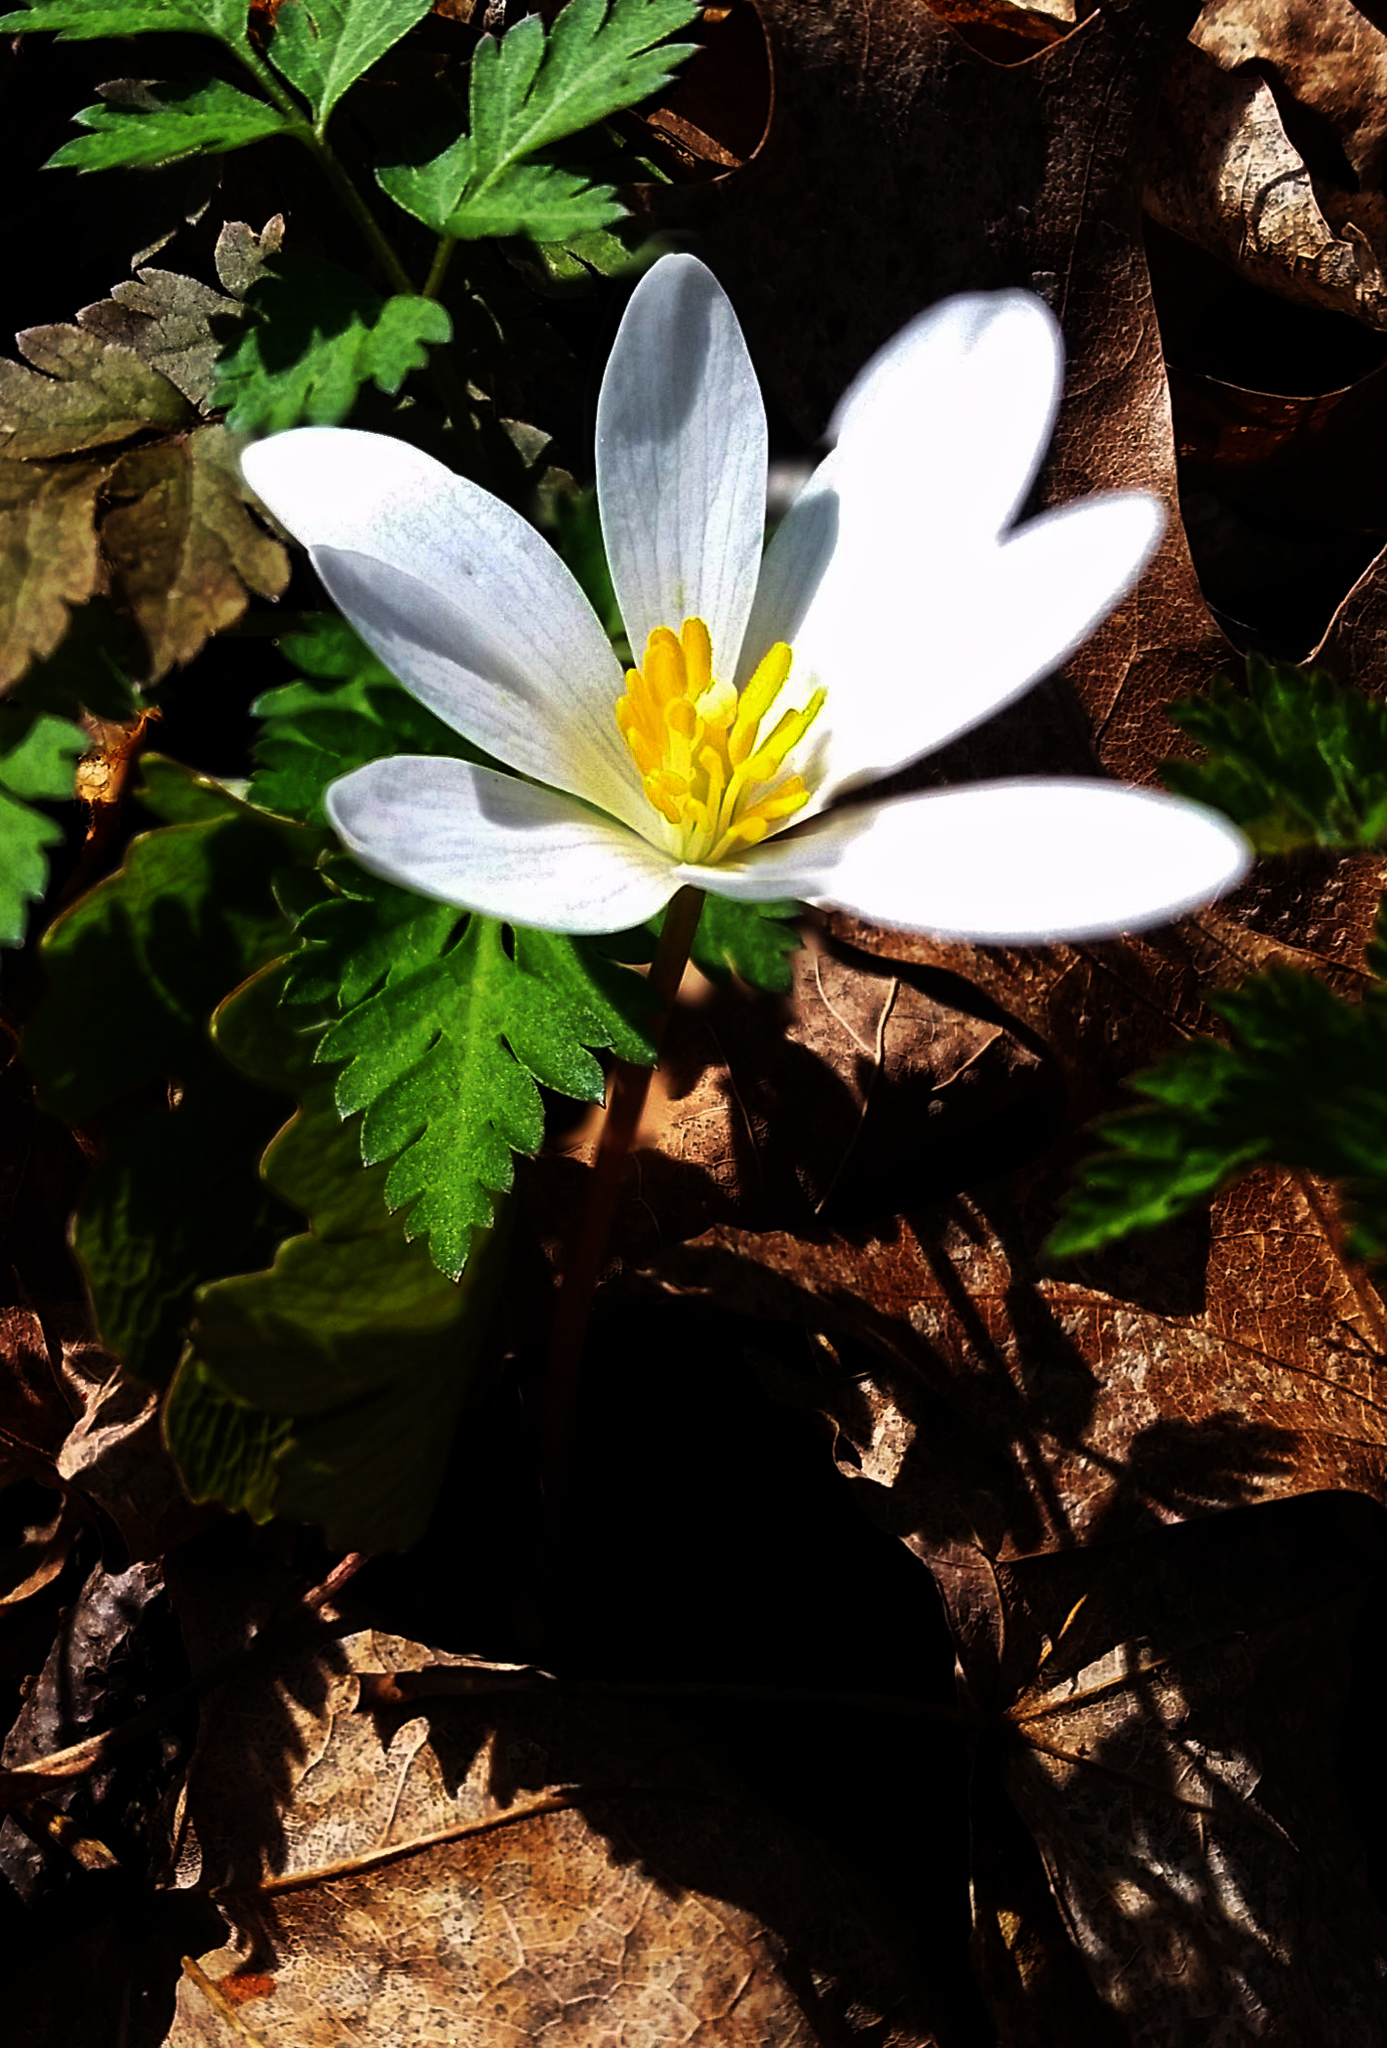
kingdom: Plantae
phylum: Tracheophyta
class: Magnoliopsida
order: Ranunculales
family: Papaveraceae
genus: Sanguinaria
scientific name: Sanguinaria canadensis
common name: Bloodroot
